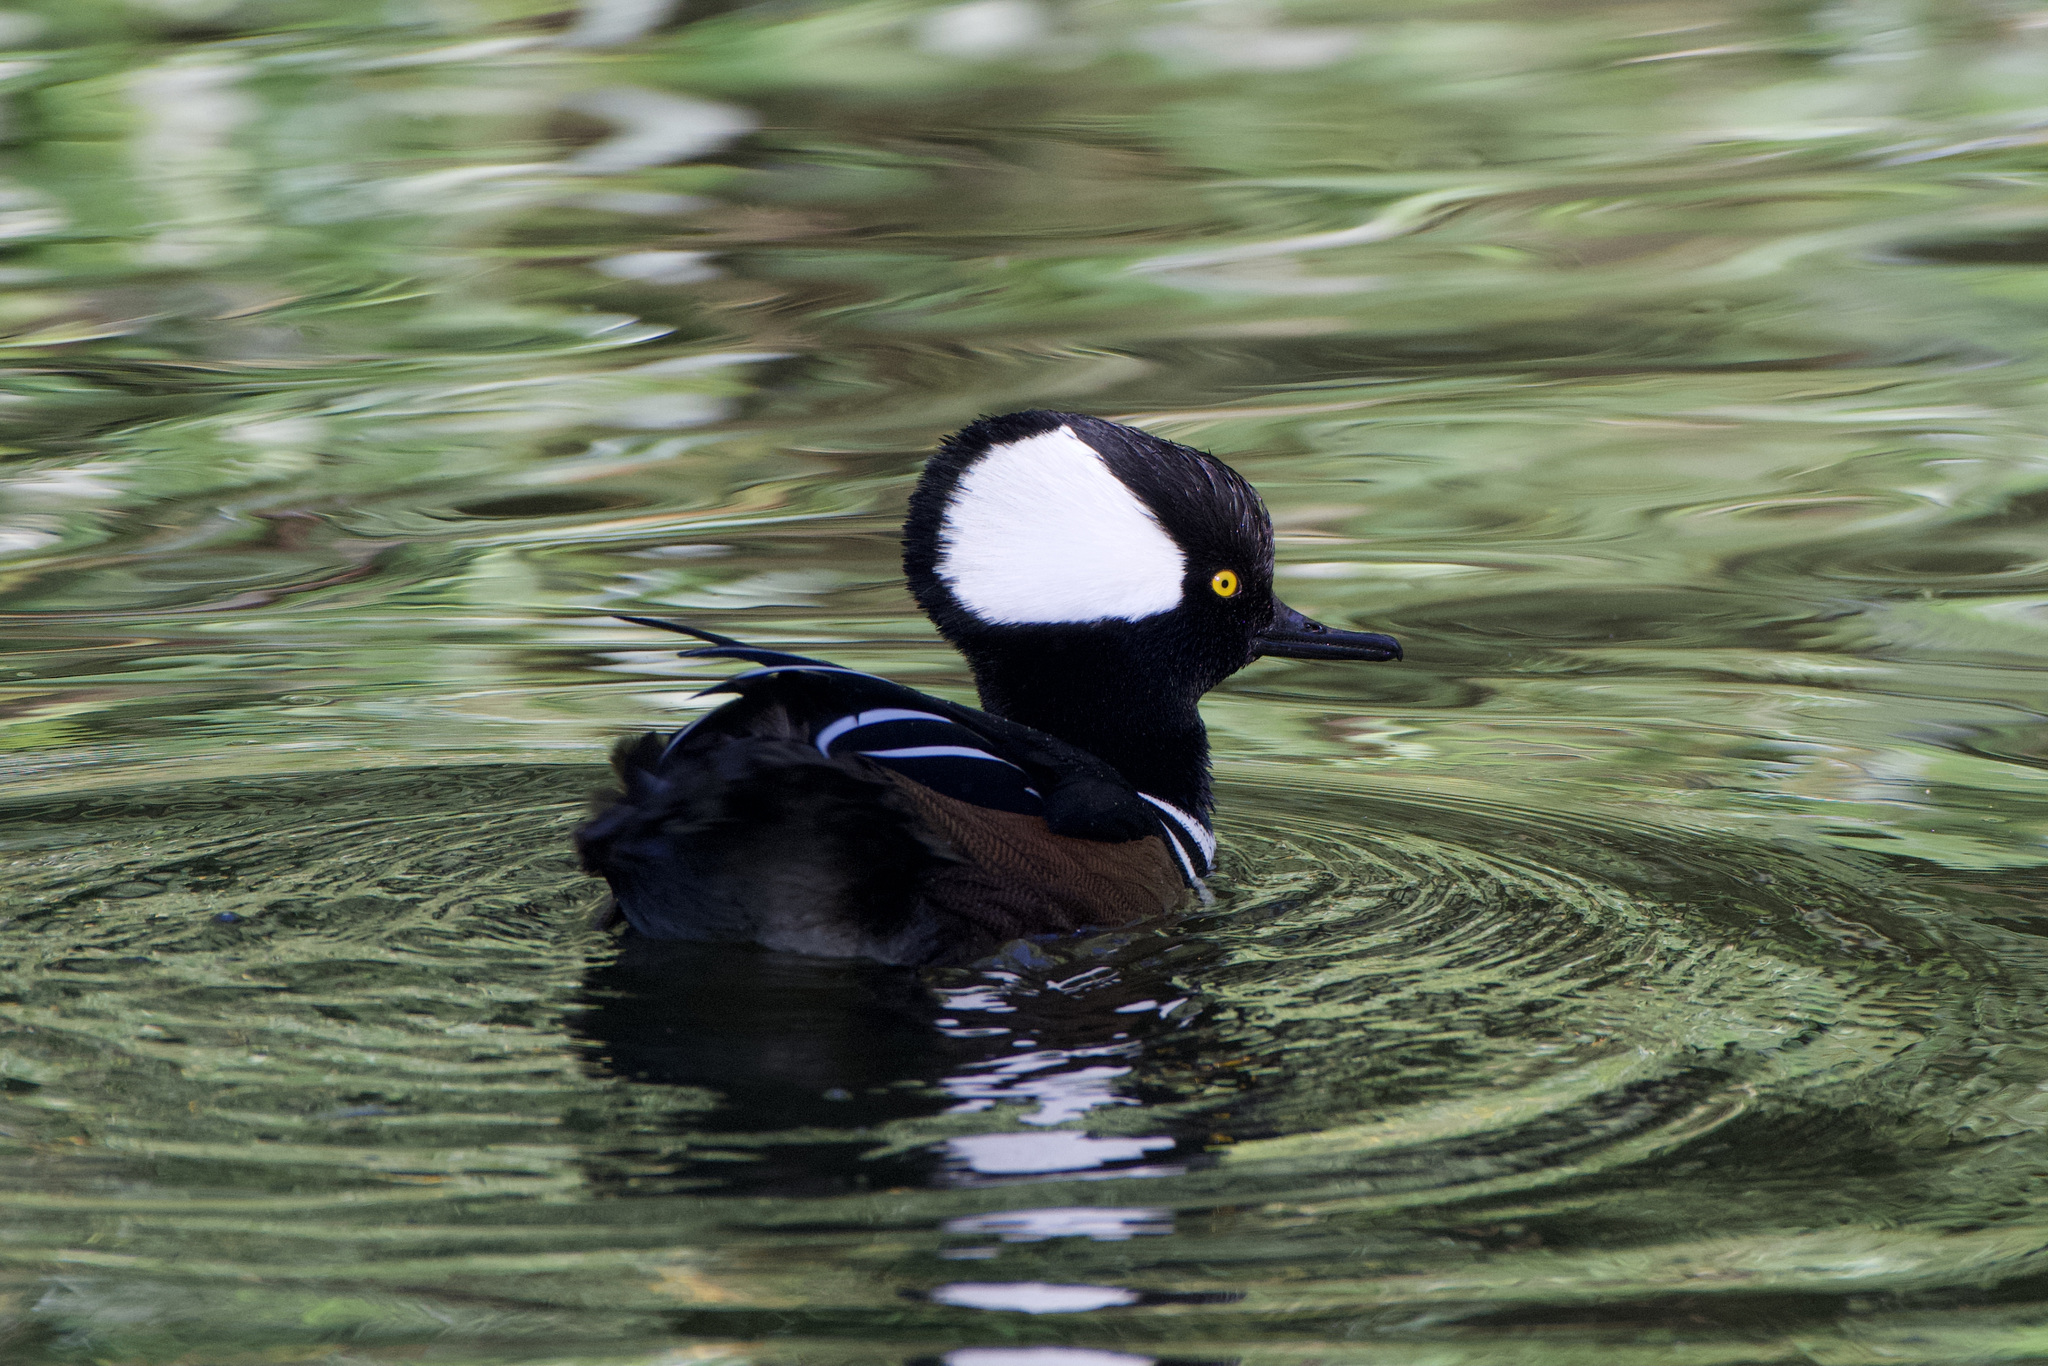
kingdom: Animalia
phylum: Chordata
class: Aves
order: Anseriformes
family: Anatidae
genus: Lophodytes
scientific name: Lophodytes cucullatus
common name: Hooded merganser
